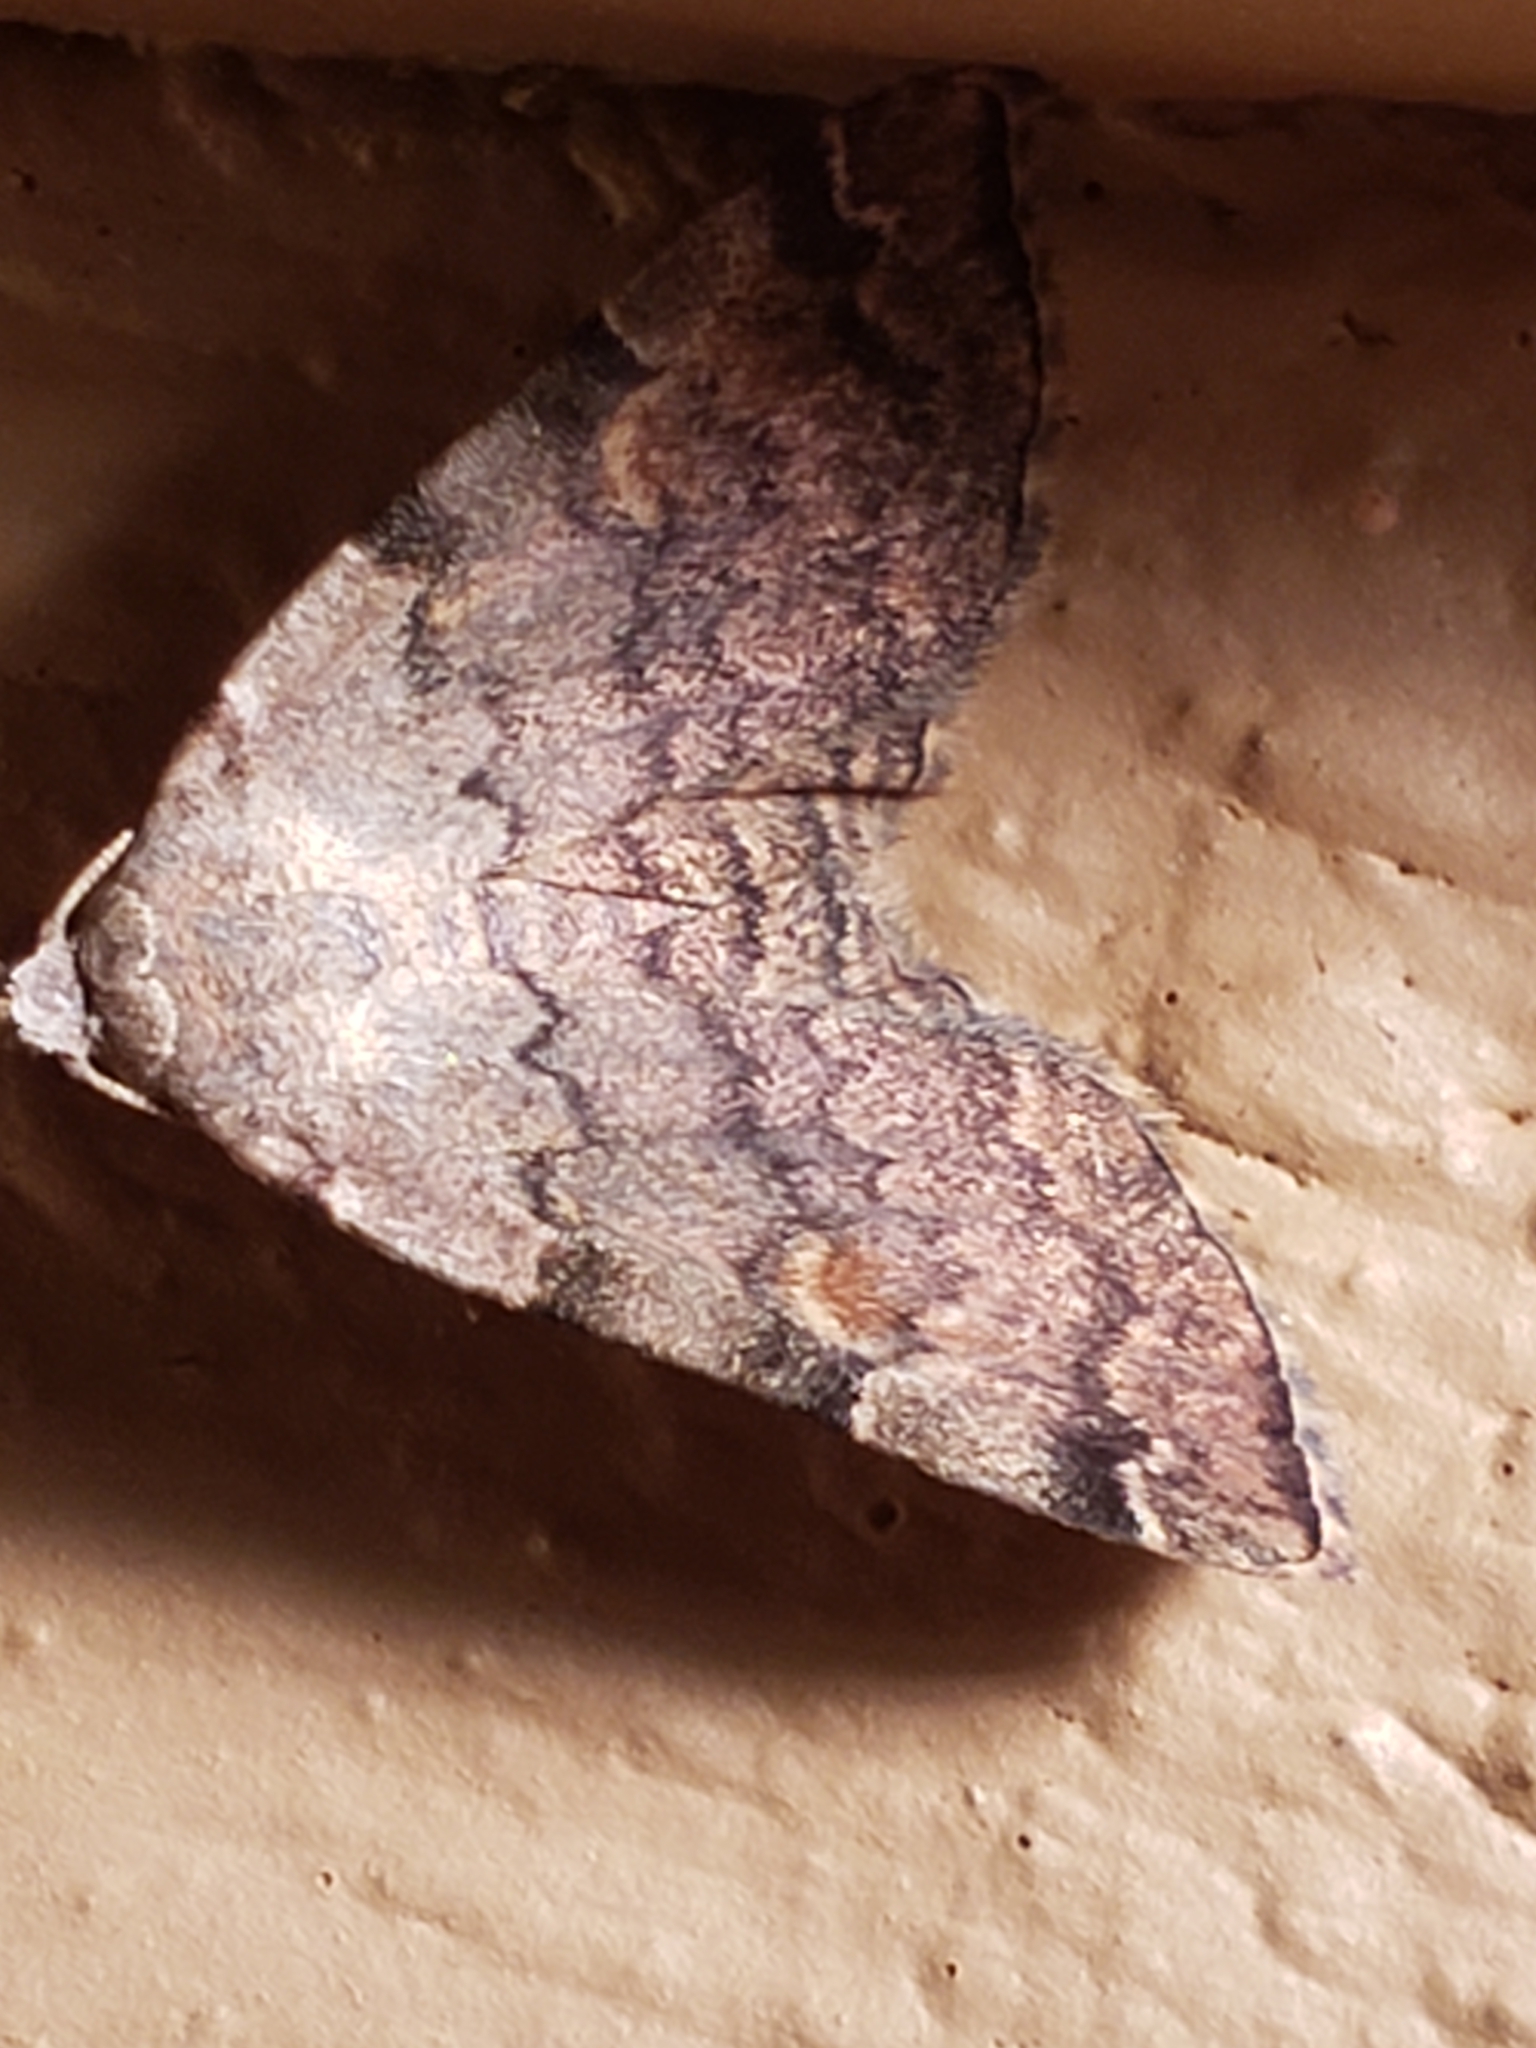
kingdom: Animalia
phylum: Arthropoda
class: Insecta
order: Lepidoptera
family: Erebidae
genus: Idia
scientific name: Idia americalis
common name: American idia moth
